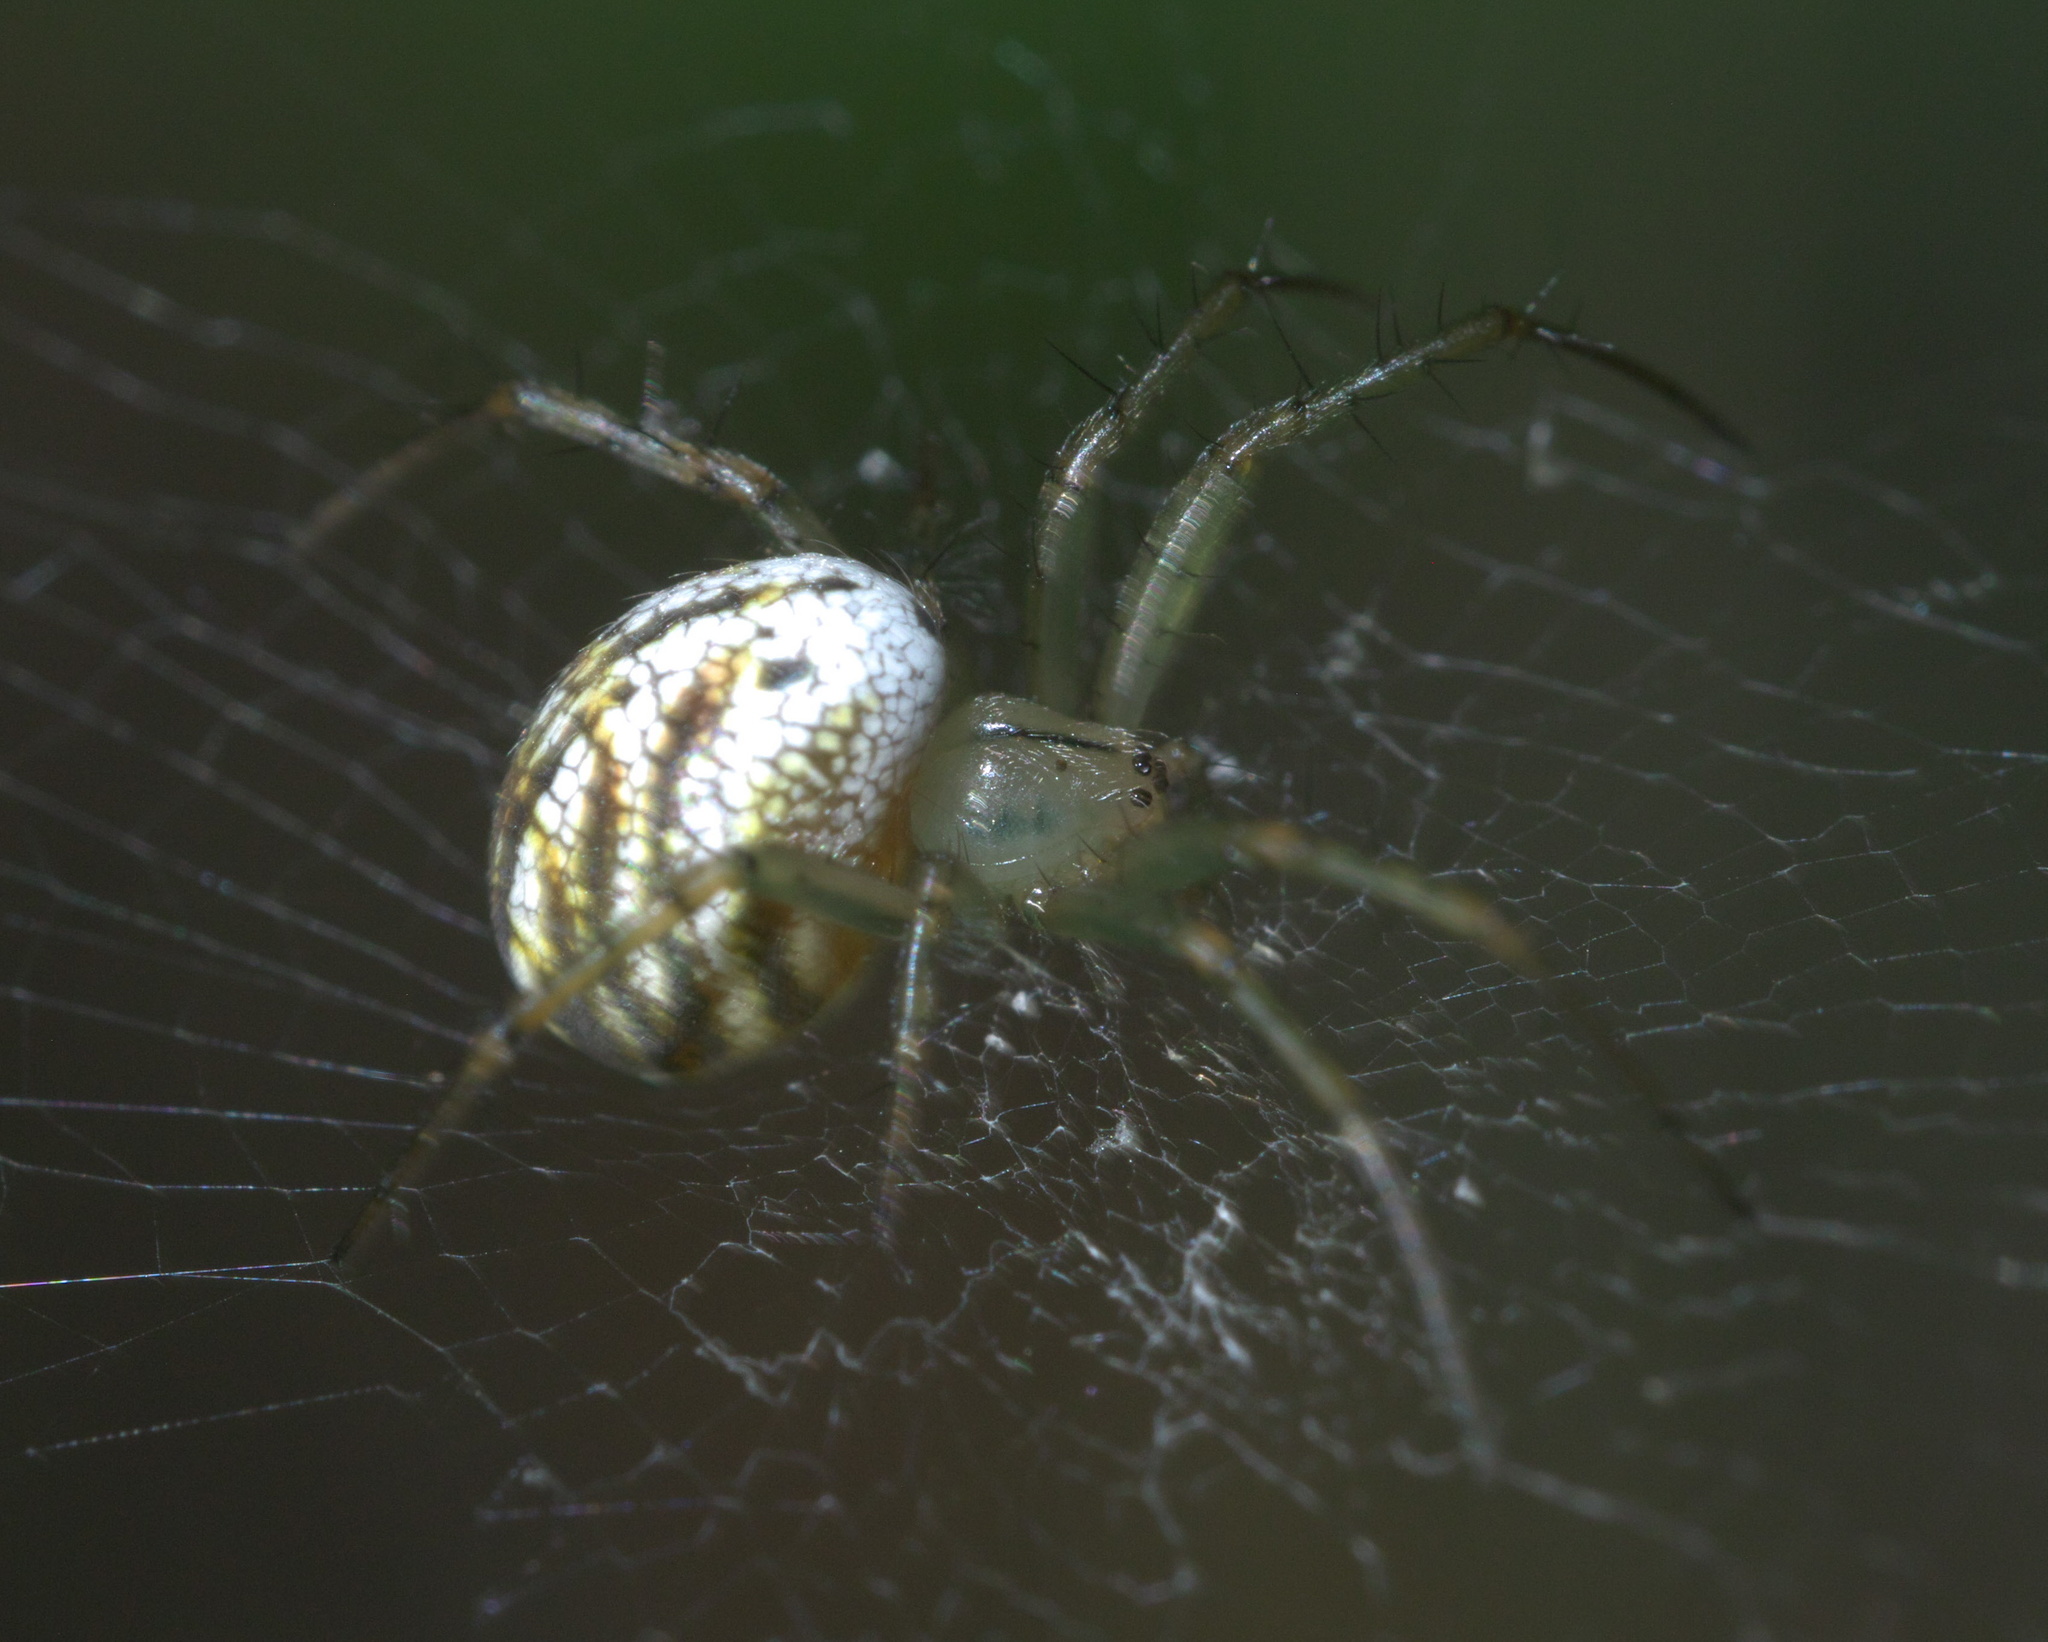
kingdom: Animalia
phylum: Arthropoda
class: Arachnida
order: Araneae
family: Araneidae
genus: Mangora
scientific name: Mangora gibberosa
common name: Lined orbweaver
